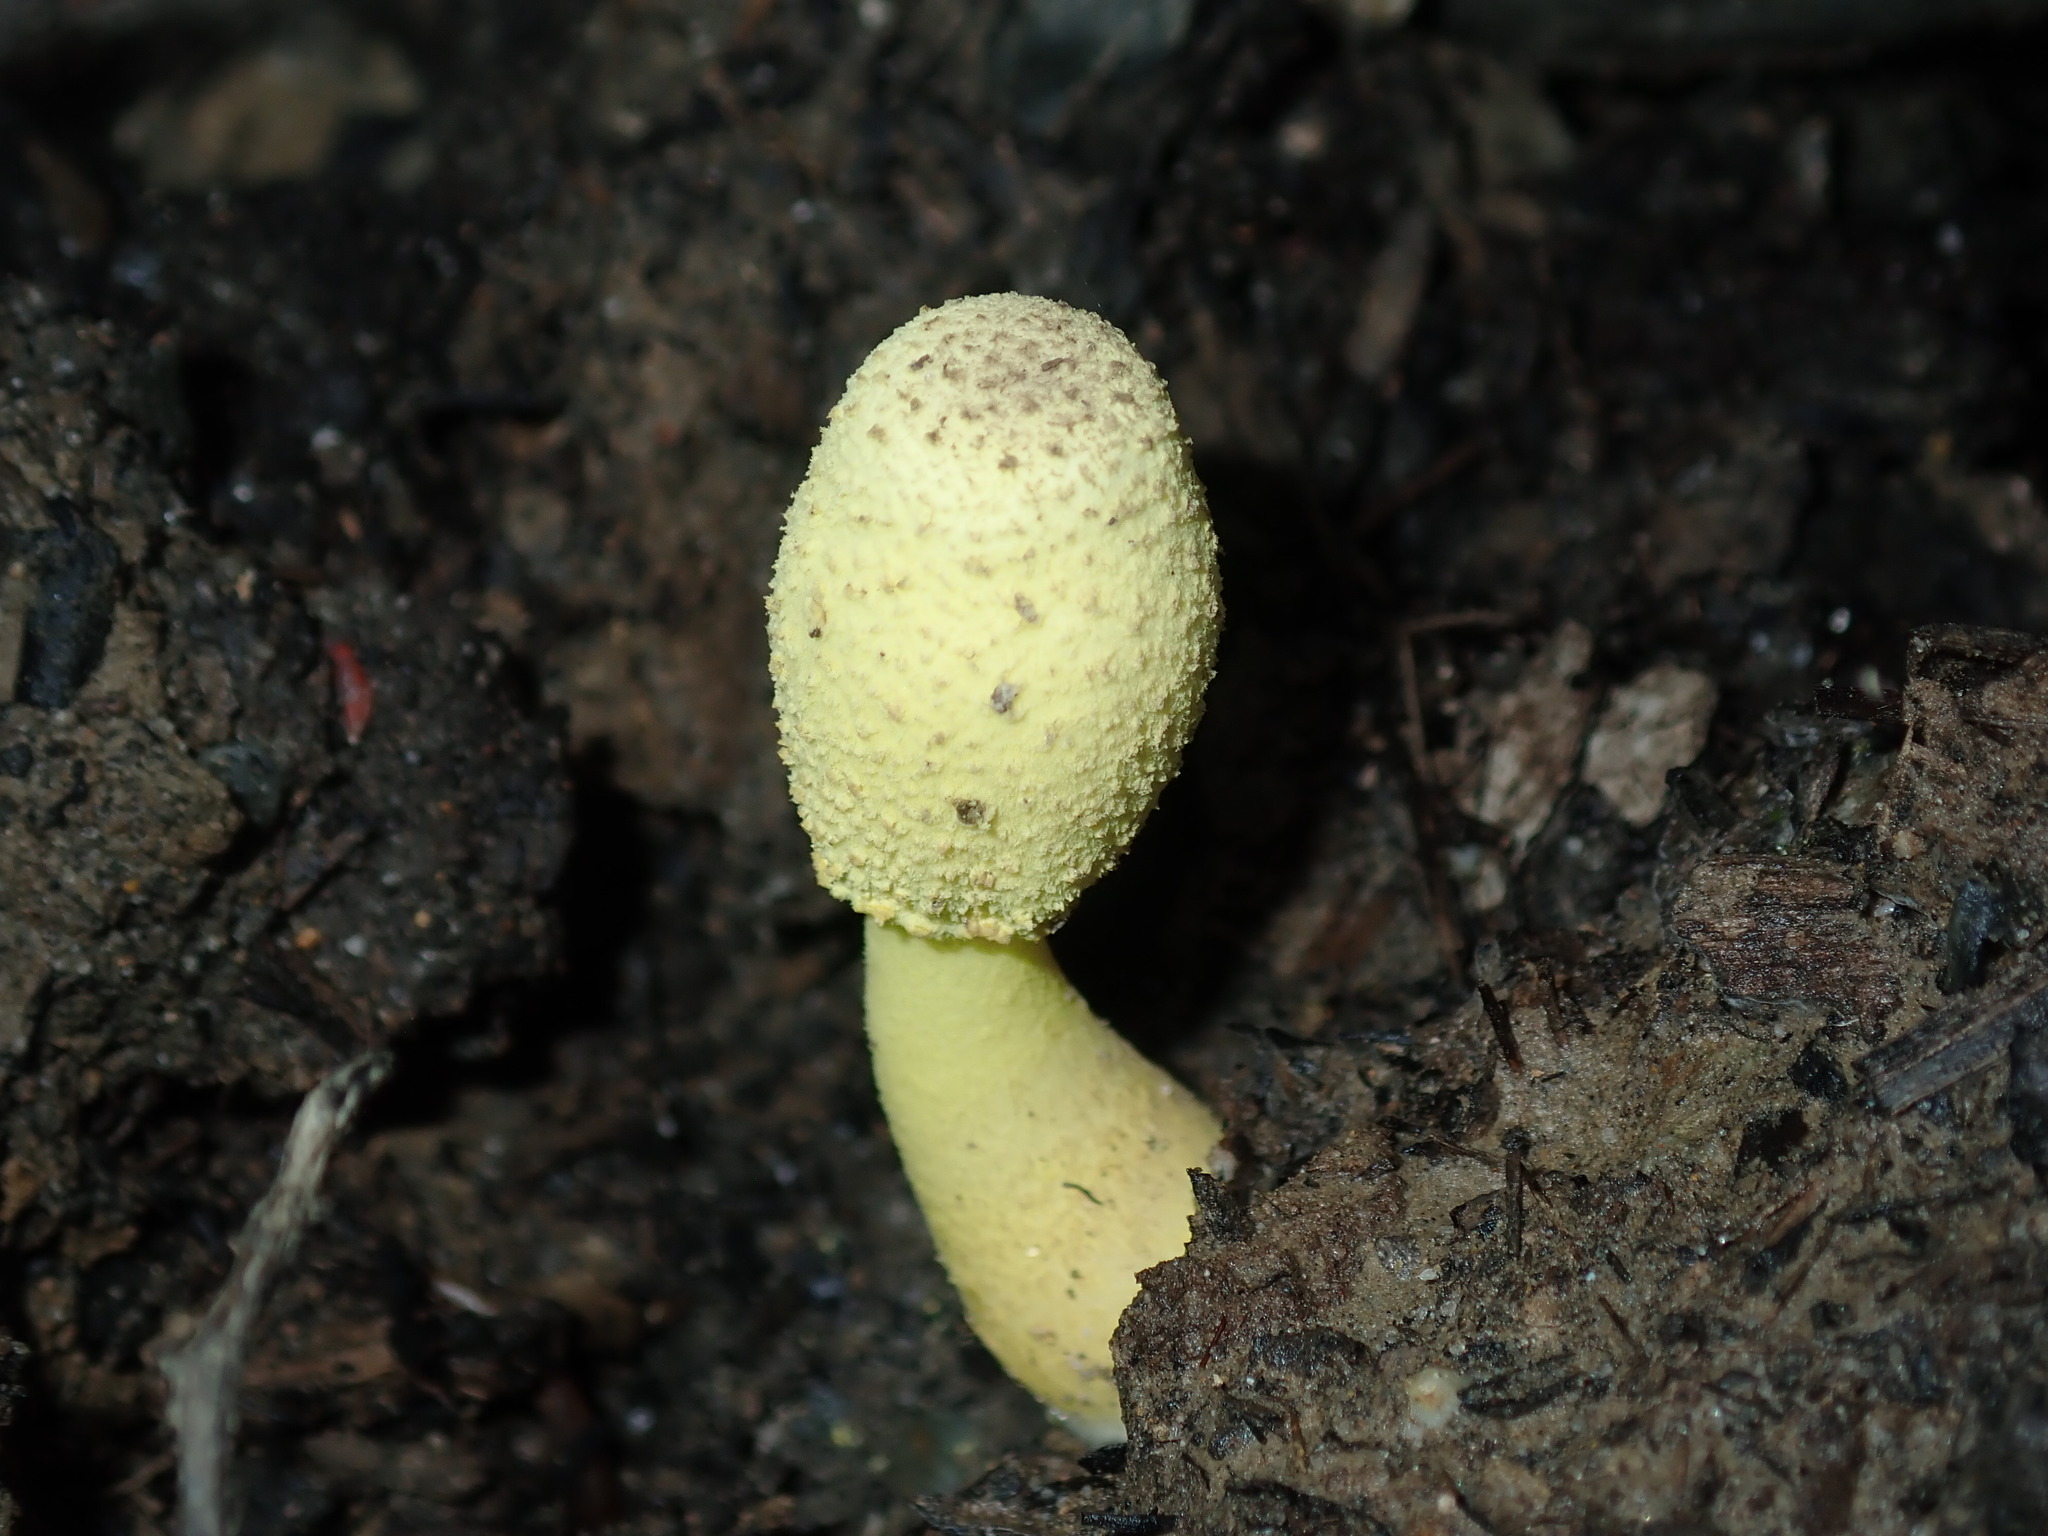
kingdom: Fungi
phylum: Basidiomycota
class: Agaricomycetes
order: Agaricales
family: Agaricaceae
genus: Leucocoprinus
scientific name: Leucocoprinus birnbaumii
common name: Plantpot dapperling
